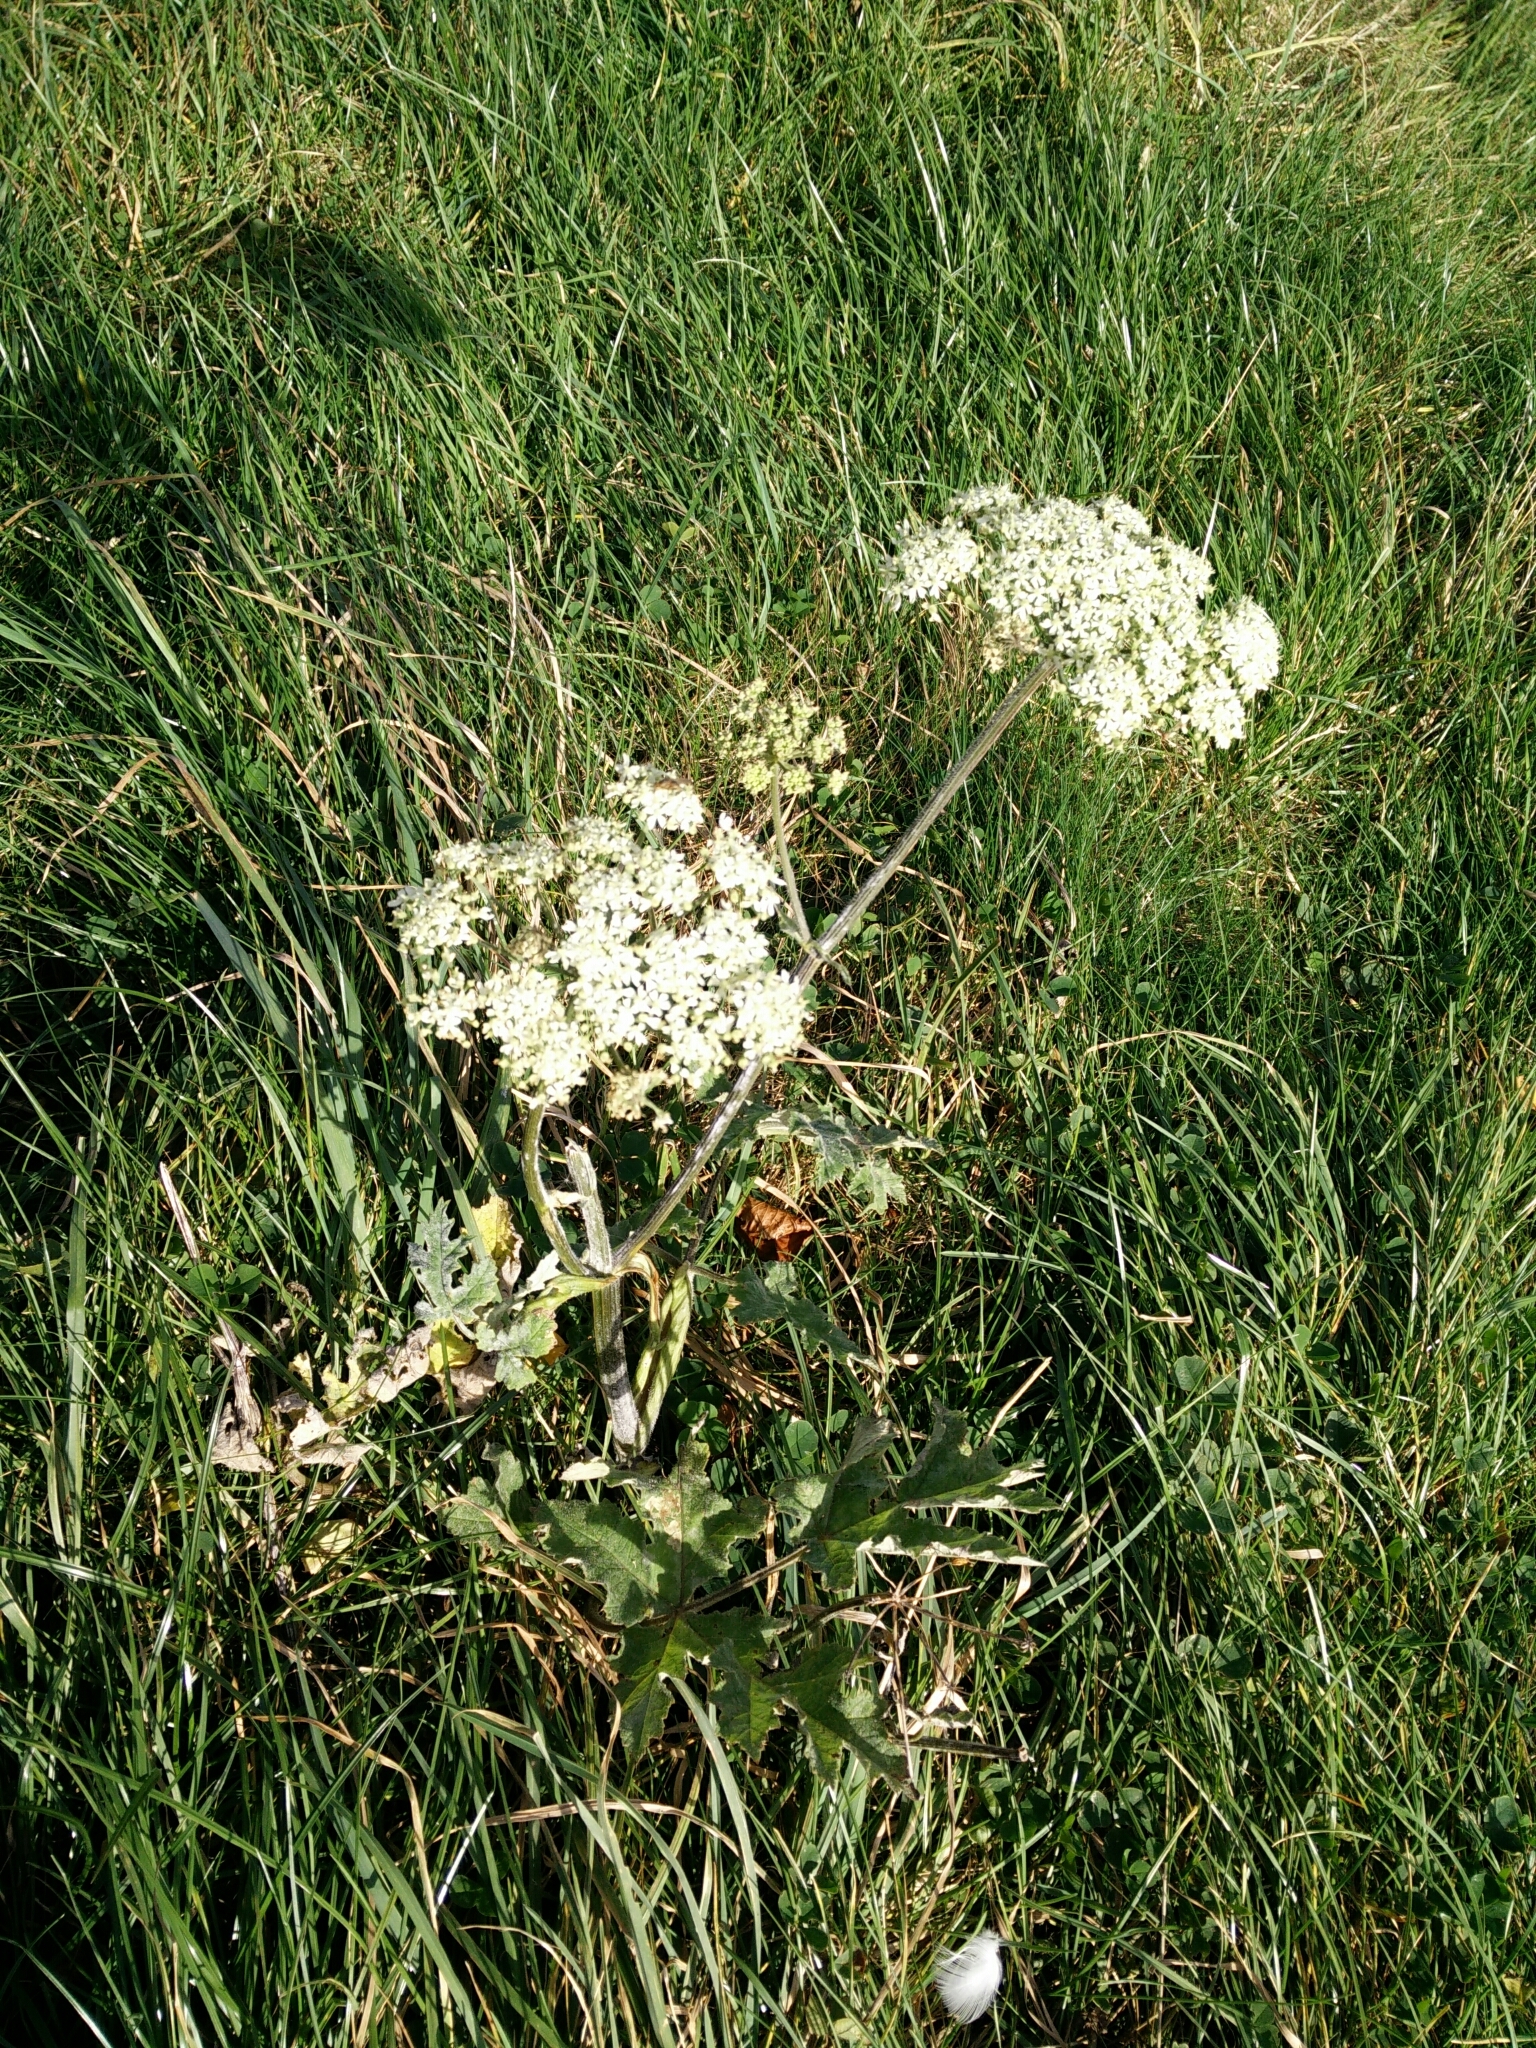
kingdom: Plantae
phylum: Tracheophyta
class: Magnoliopsida
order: Apiales
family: Apiaceae
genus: Heracleum
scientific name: Heracleum sphondylium
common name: Hogweed
